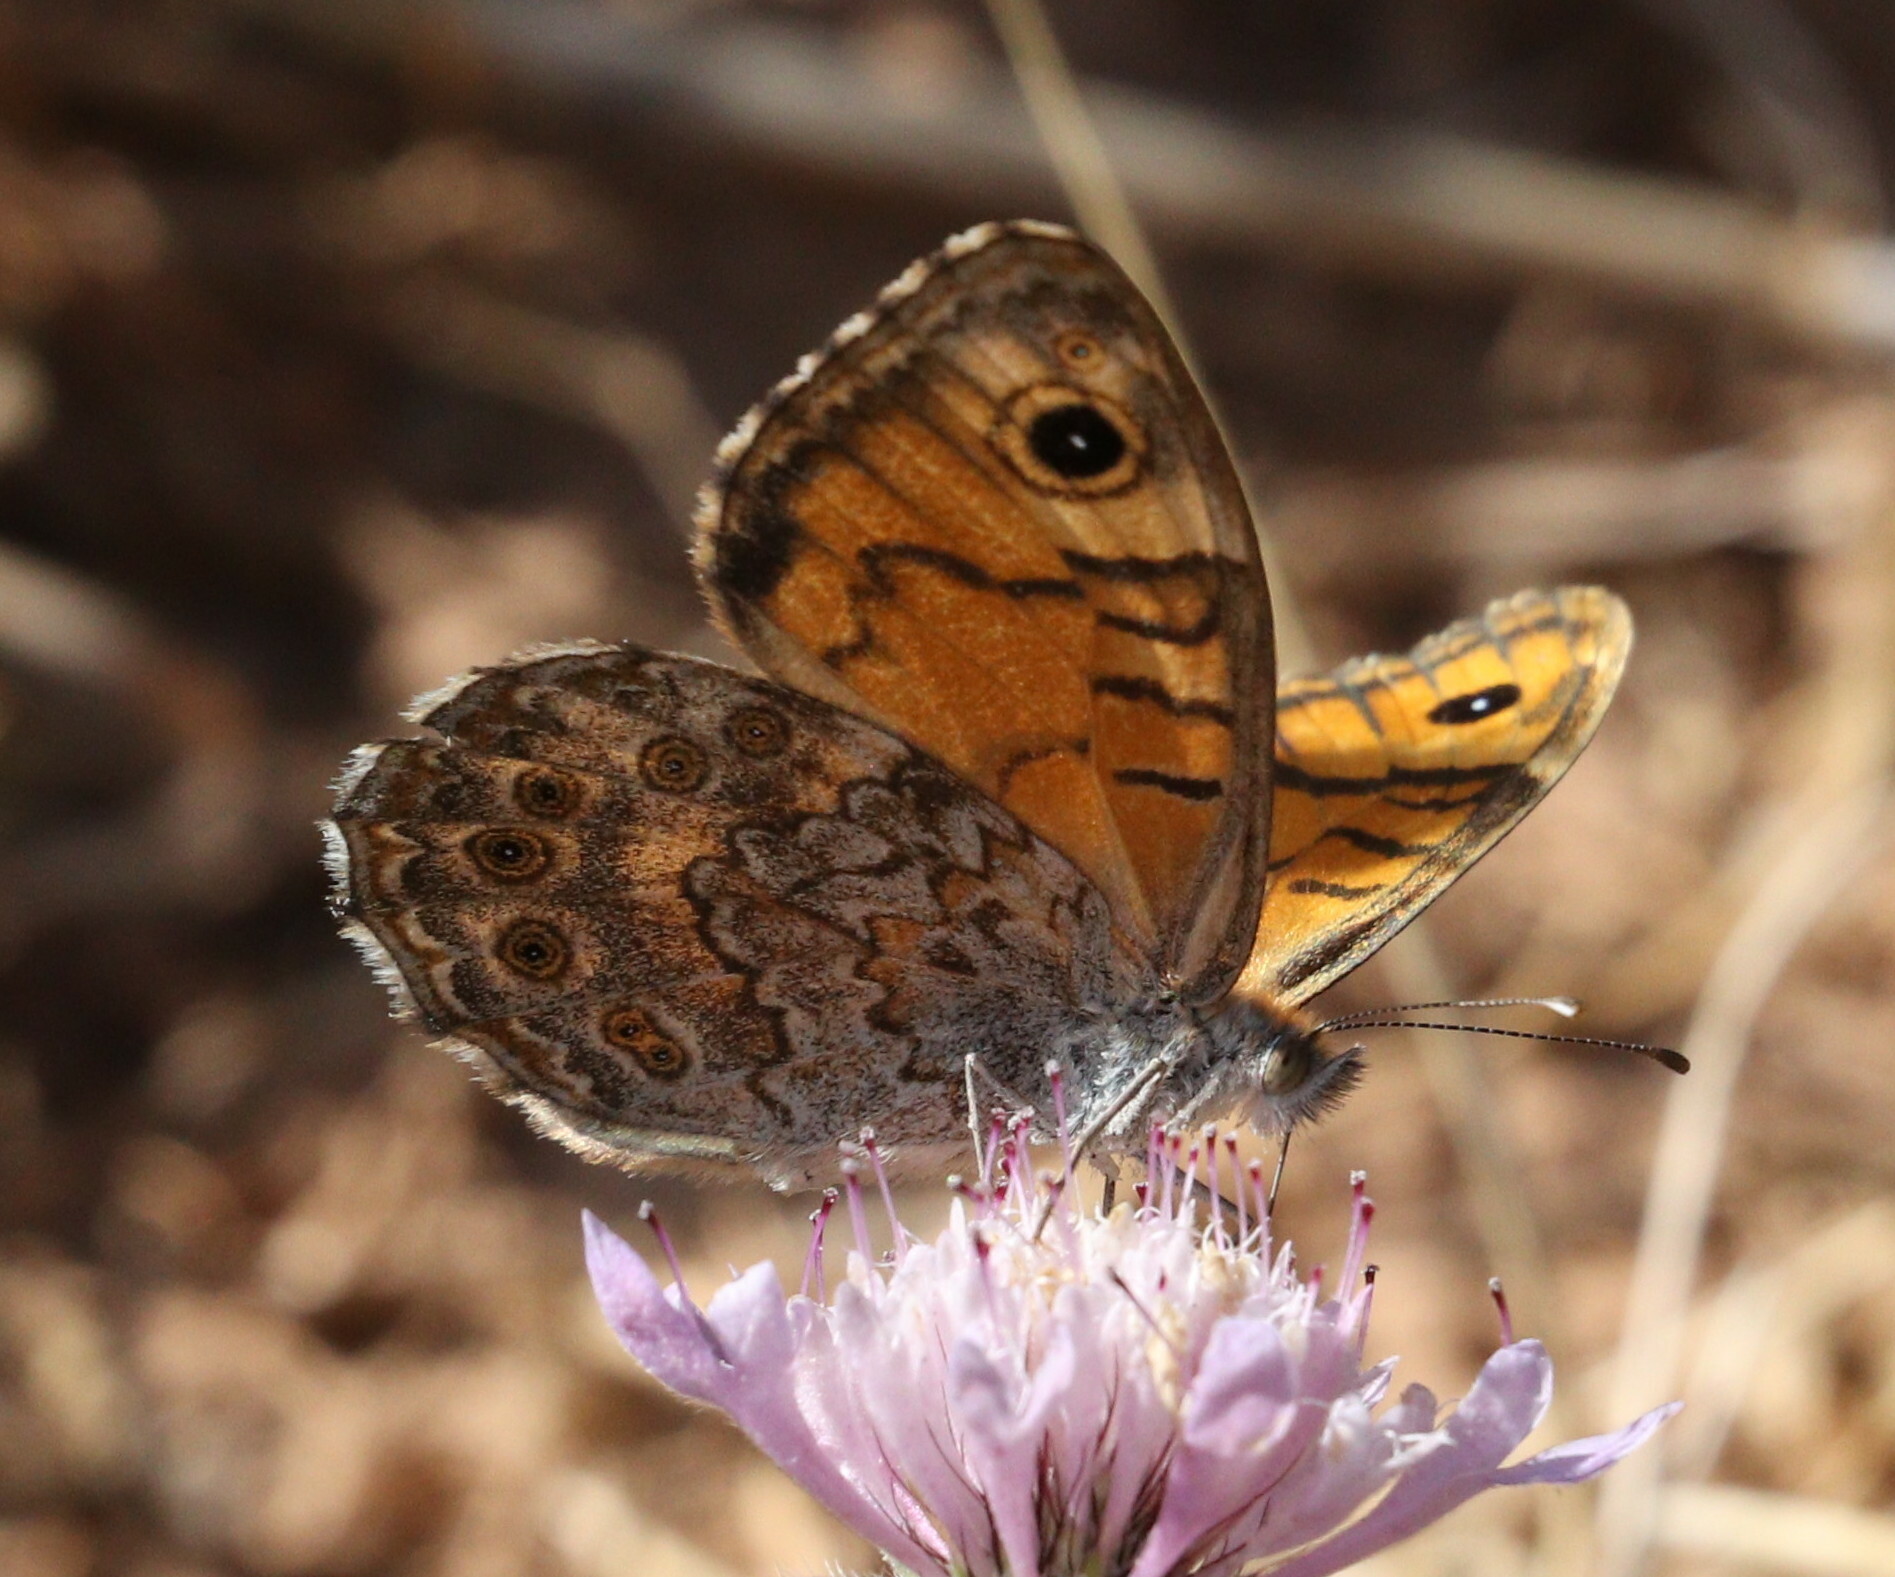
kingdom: Animalia
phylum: Arthropoda
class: Insecta
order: Lepidoptera
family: Nymphalidae
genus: Pararge
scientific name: Pararge Lasiommata megera
